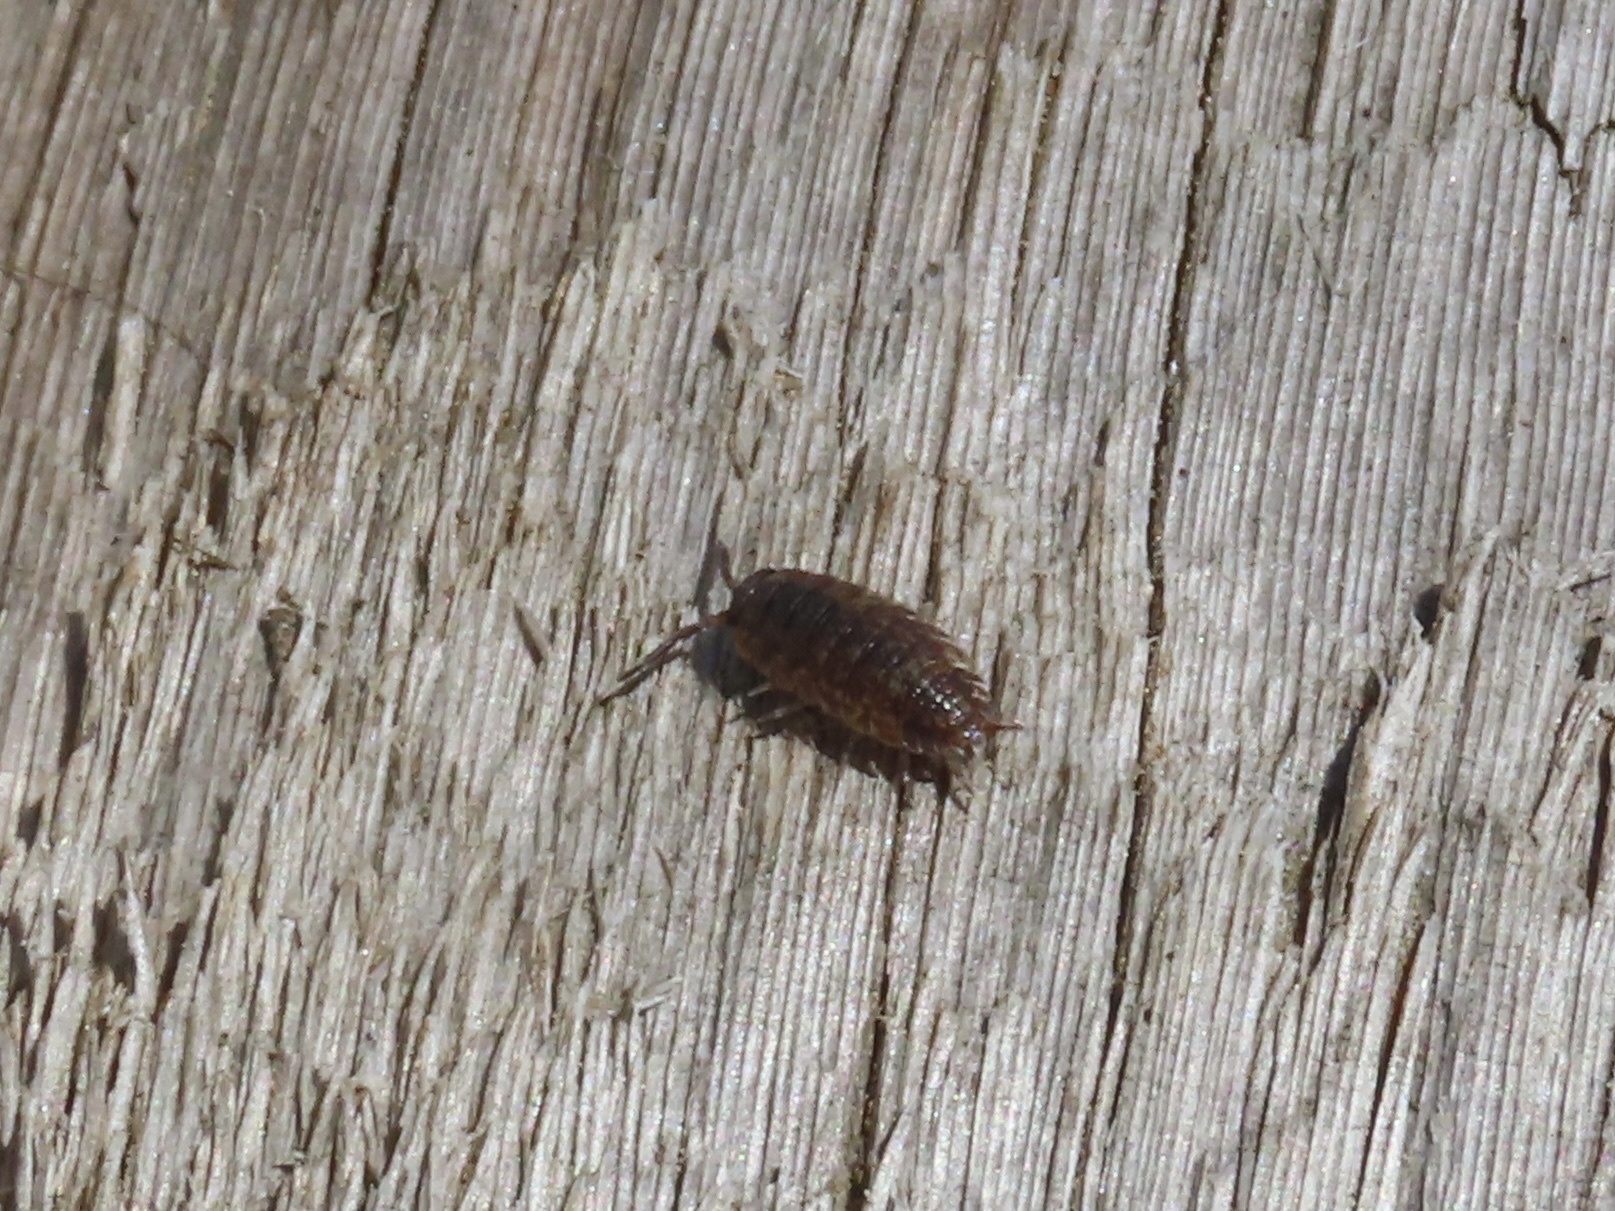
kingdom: Animalia
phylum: Arthropoda
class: Malacostraca
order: Isopoda
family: Porcellionidae
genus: Porcellio
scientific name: Porcellio scaber
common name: Common rough woodlouse
